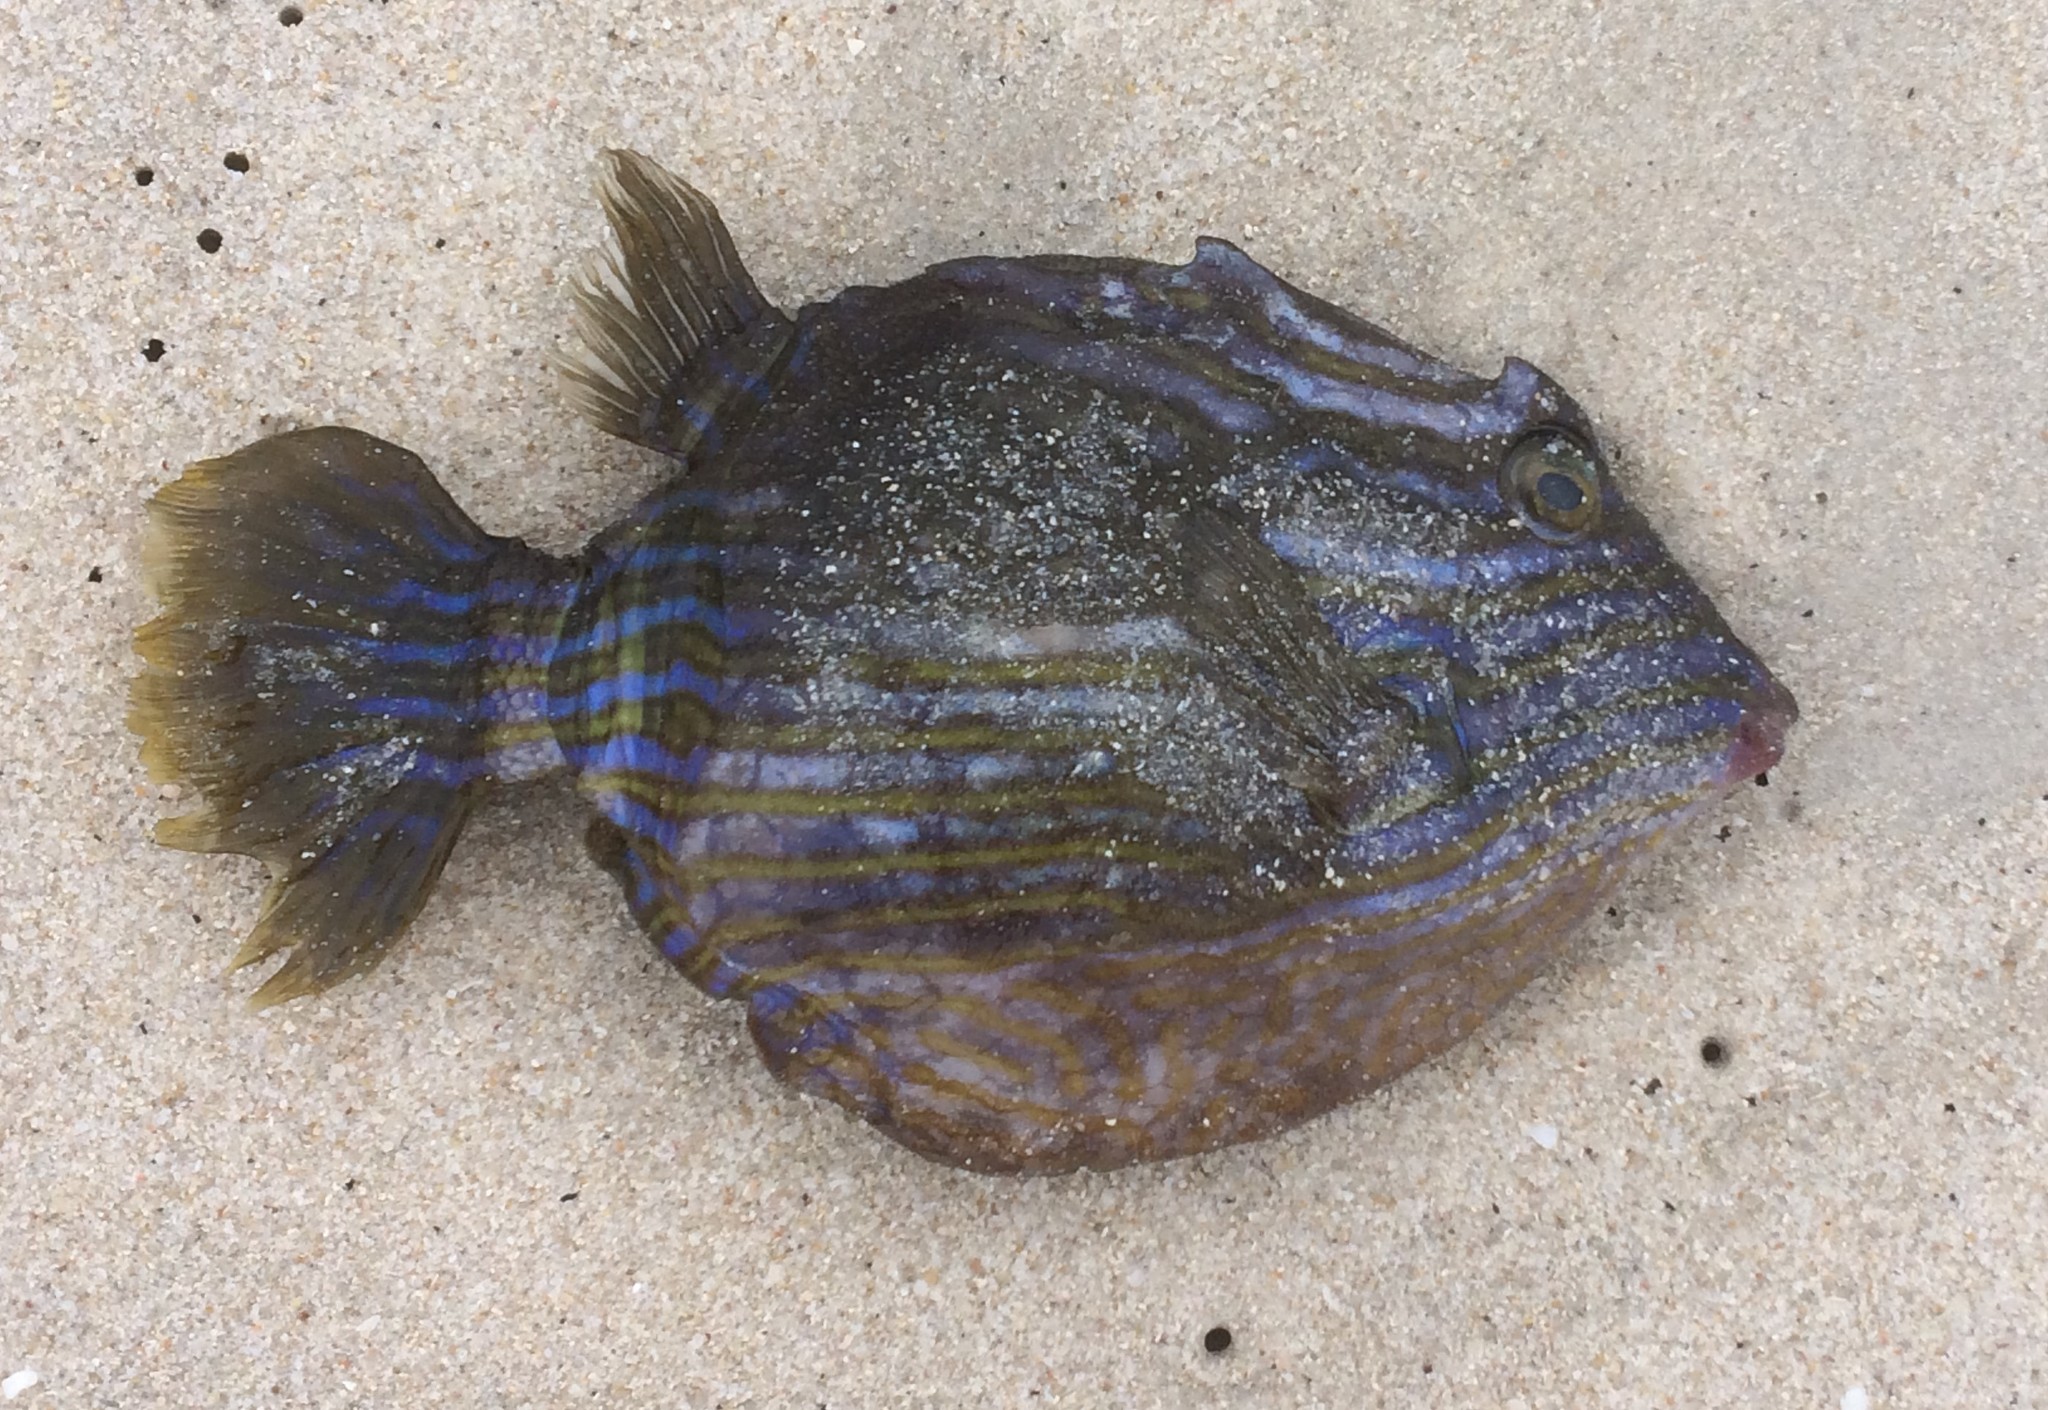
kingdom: Animalia
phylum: Chordata
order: Tetraodontiformes
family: Aracanidae
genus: Aracana
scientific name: Aracana aurita
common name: Shaw’s cowfish
